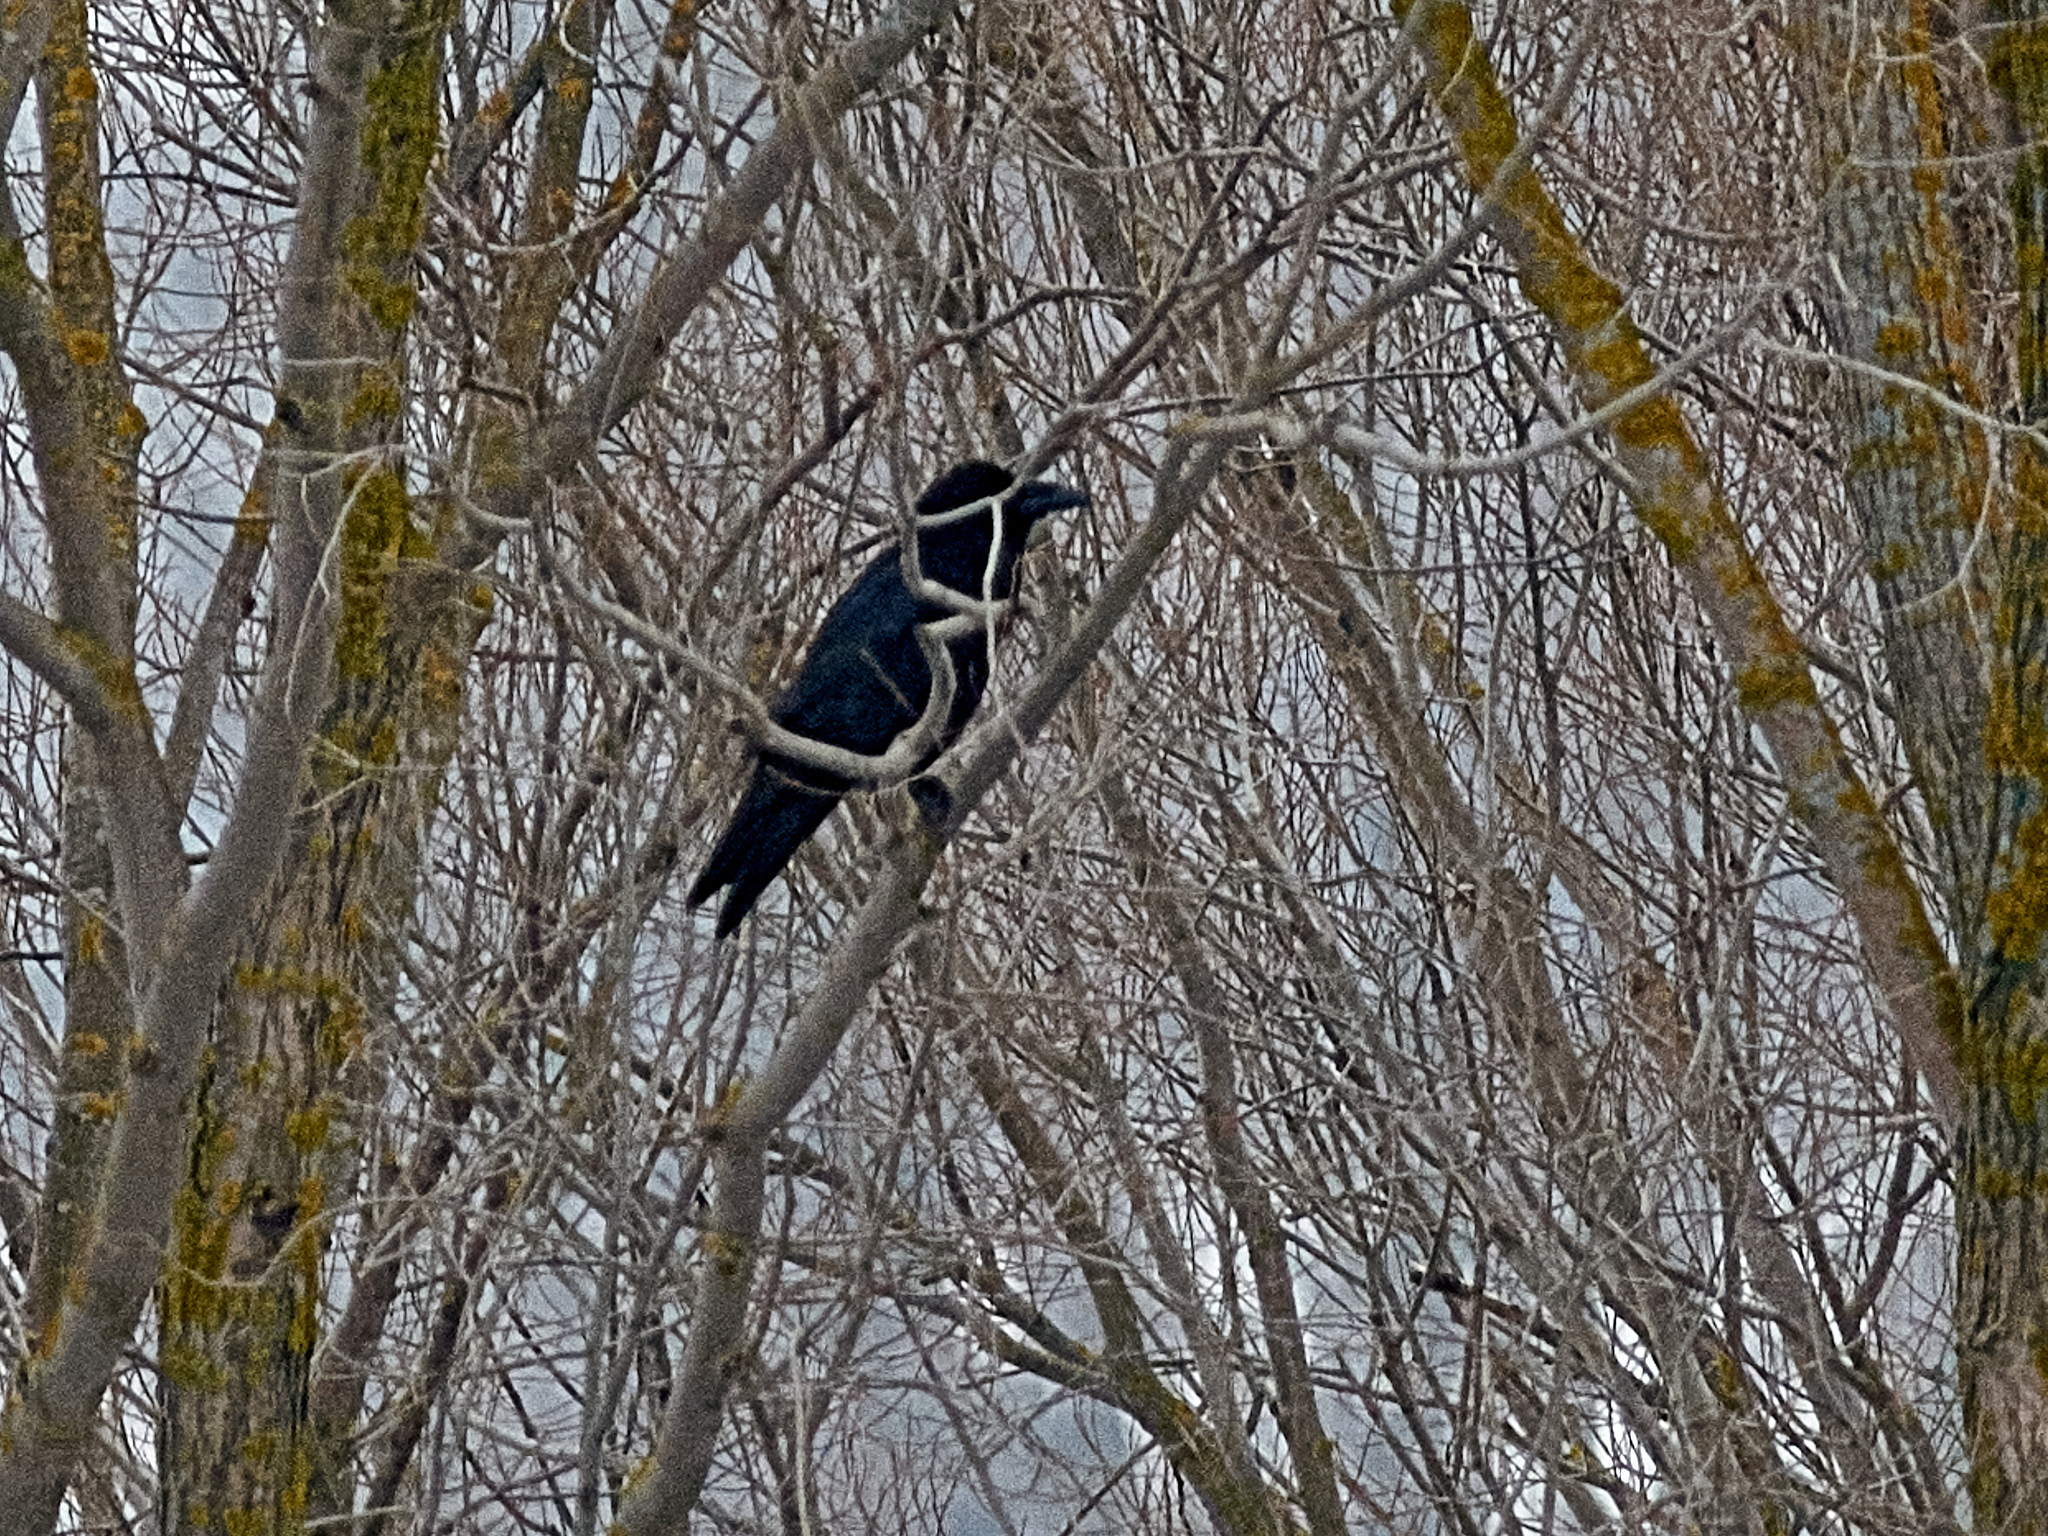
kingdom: Animalia
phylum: Chordata
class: Aves
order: Passeriformes
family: Corvidae
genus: Corvus
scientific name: Corvus corax
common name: Common raven
